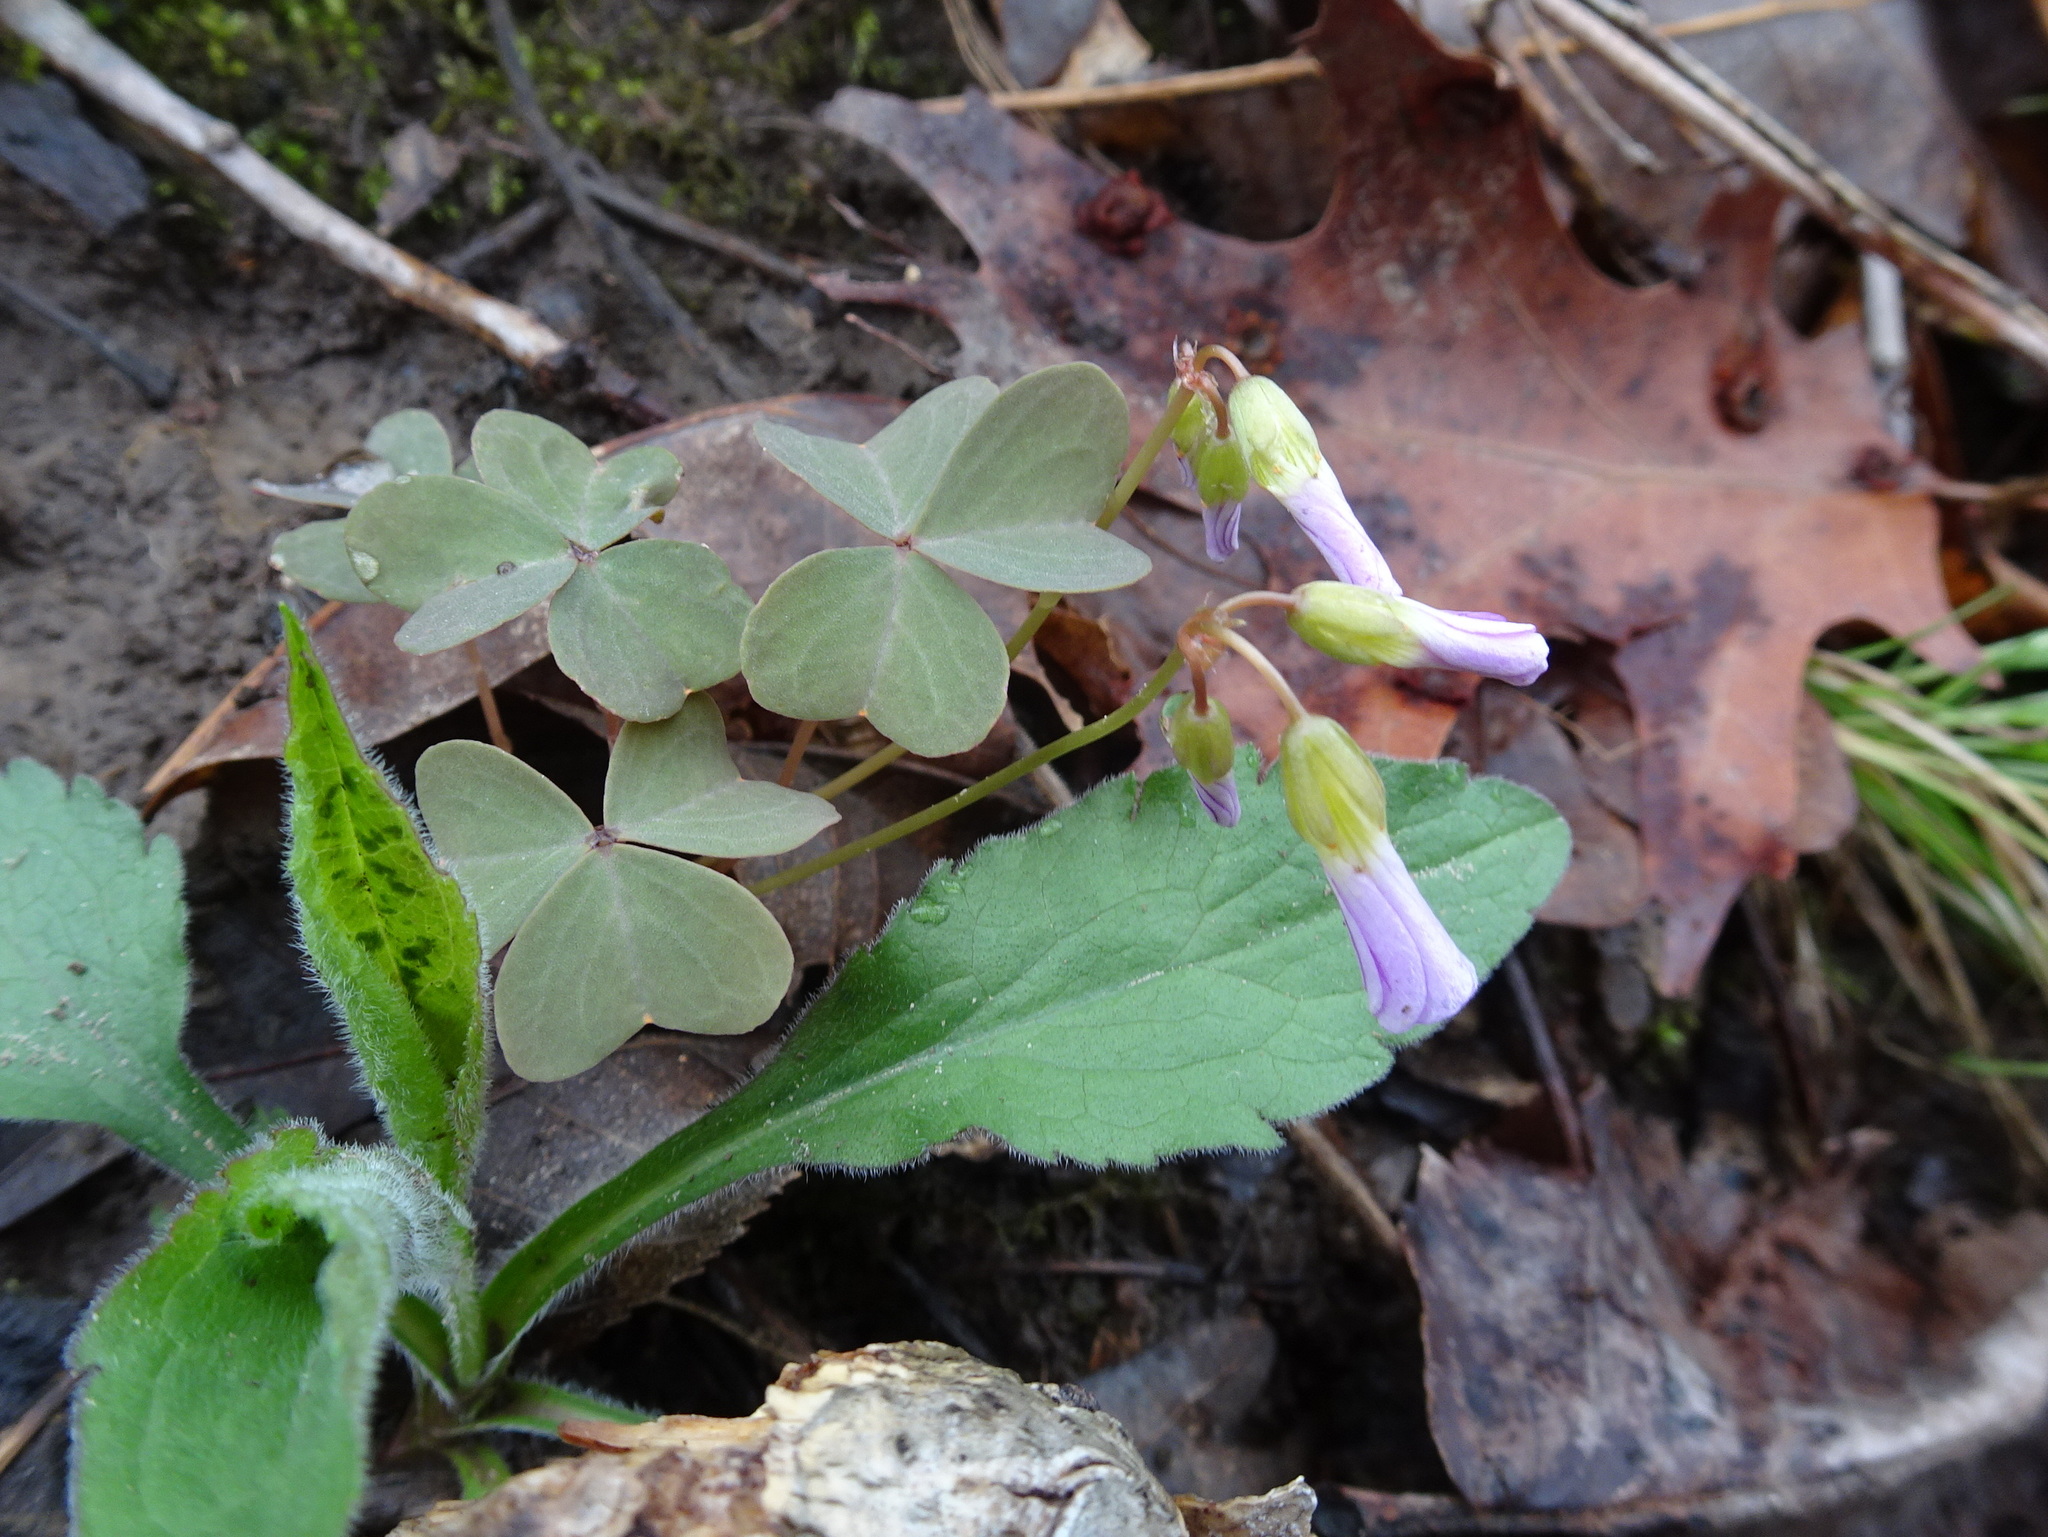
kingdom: Plantae
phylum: Tracheophyta
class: Magnoliopsida
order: Oxalidales
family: Oxalidaceae
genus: Oxalis
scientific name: Oxalis violacea
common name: Violet wood-sorrel
